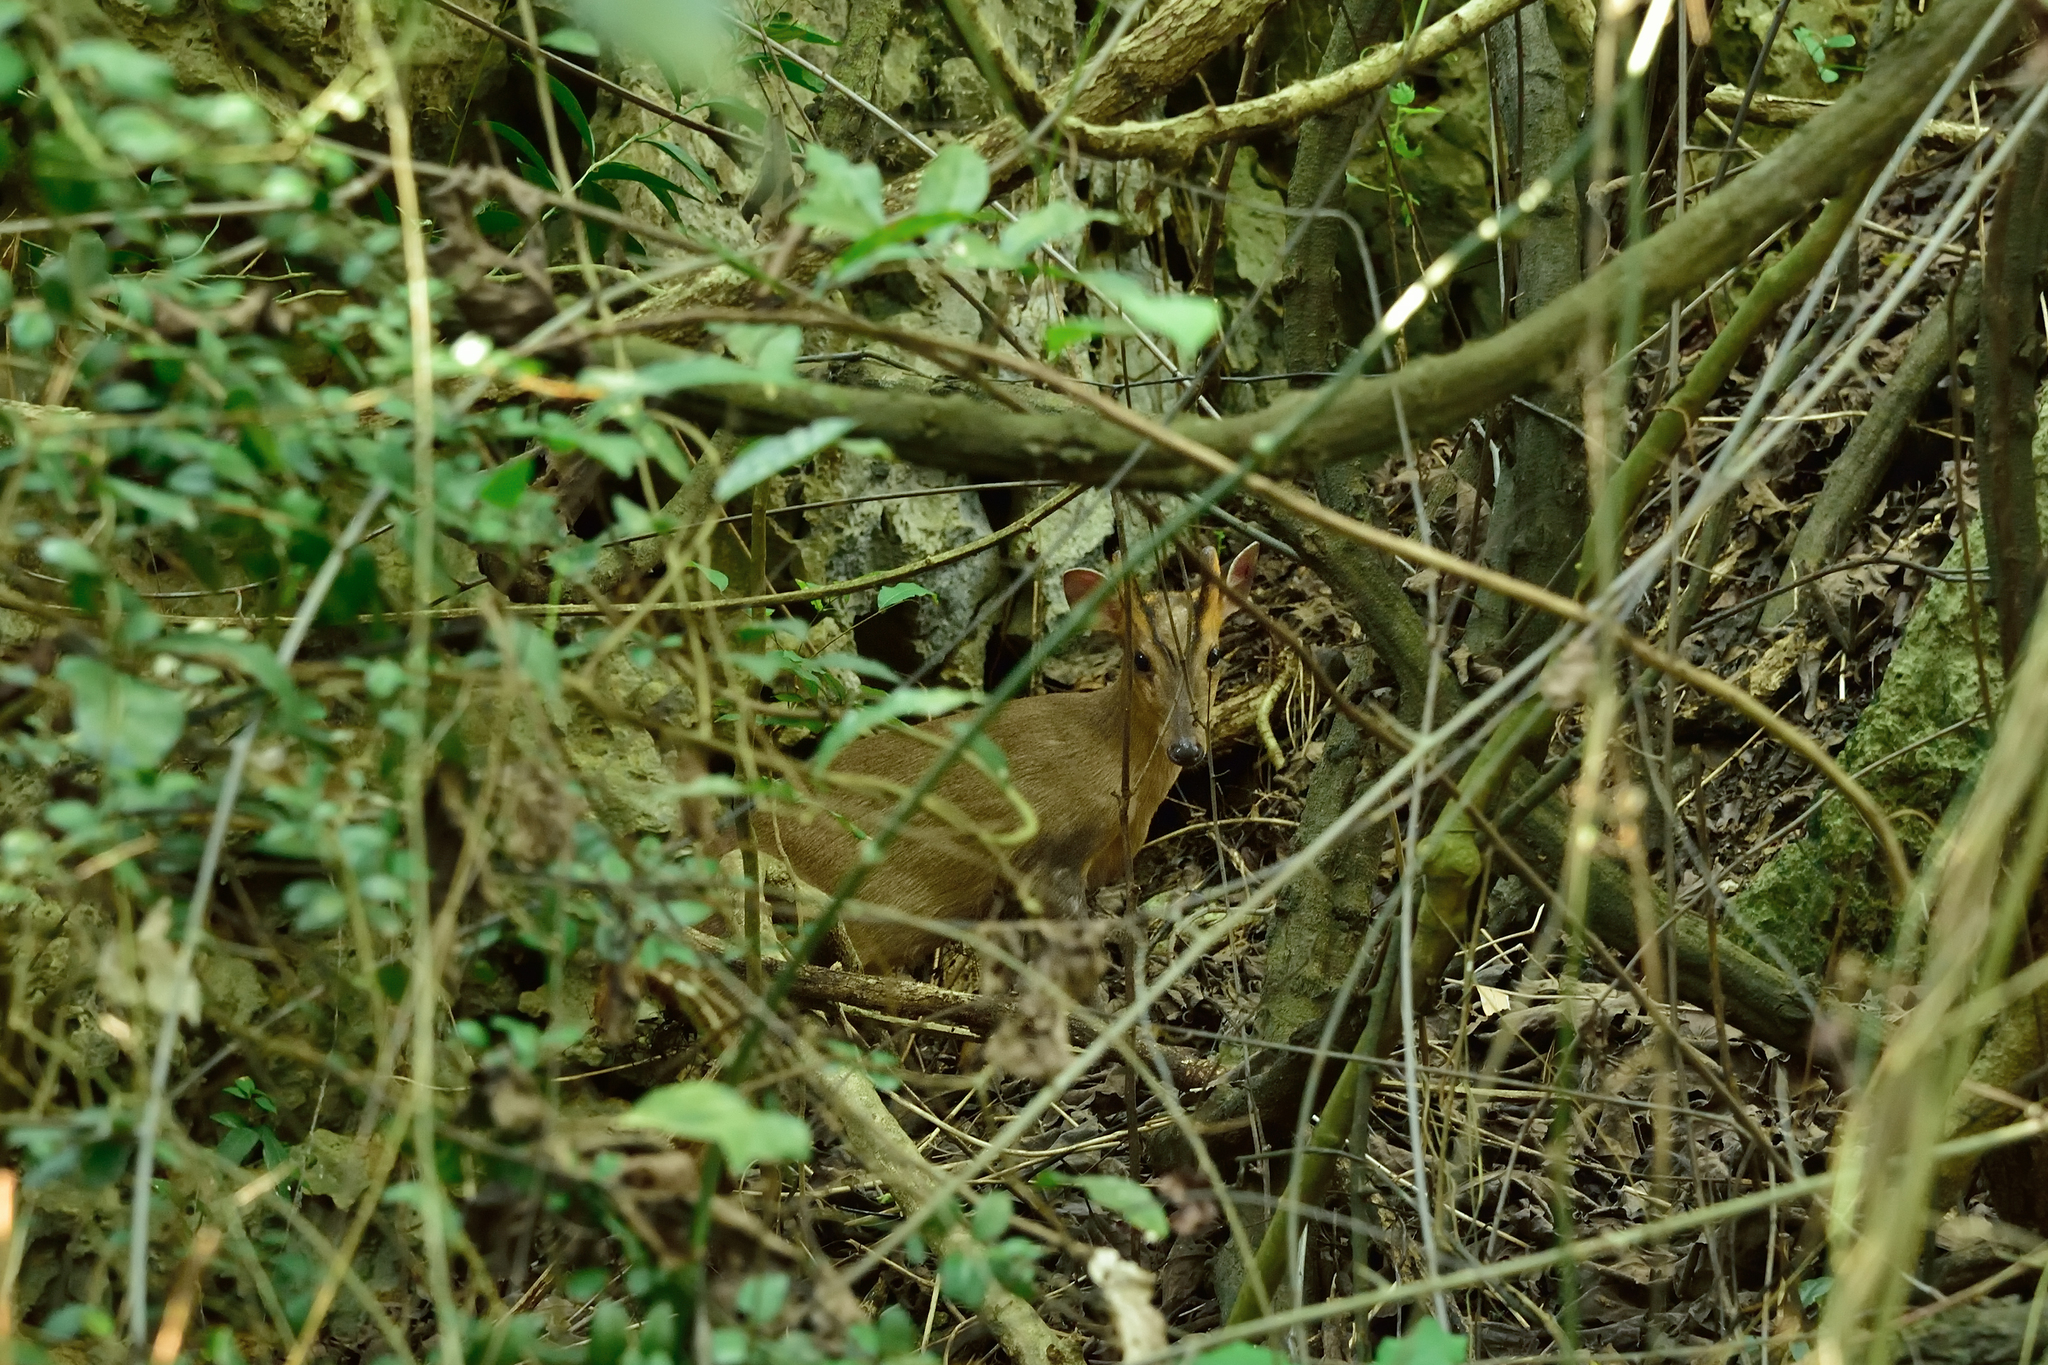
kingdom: Animalia
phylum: Chordata
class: Mammalia
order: Artiodactyla
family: Cervidae
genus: Muntiacus
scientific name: Muntiacus reevesi
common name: Reeves' muntjac
